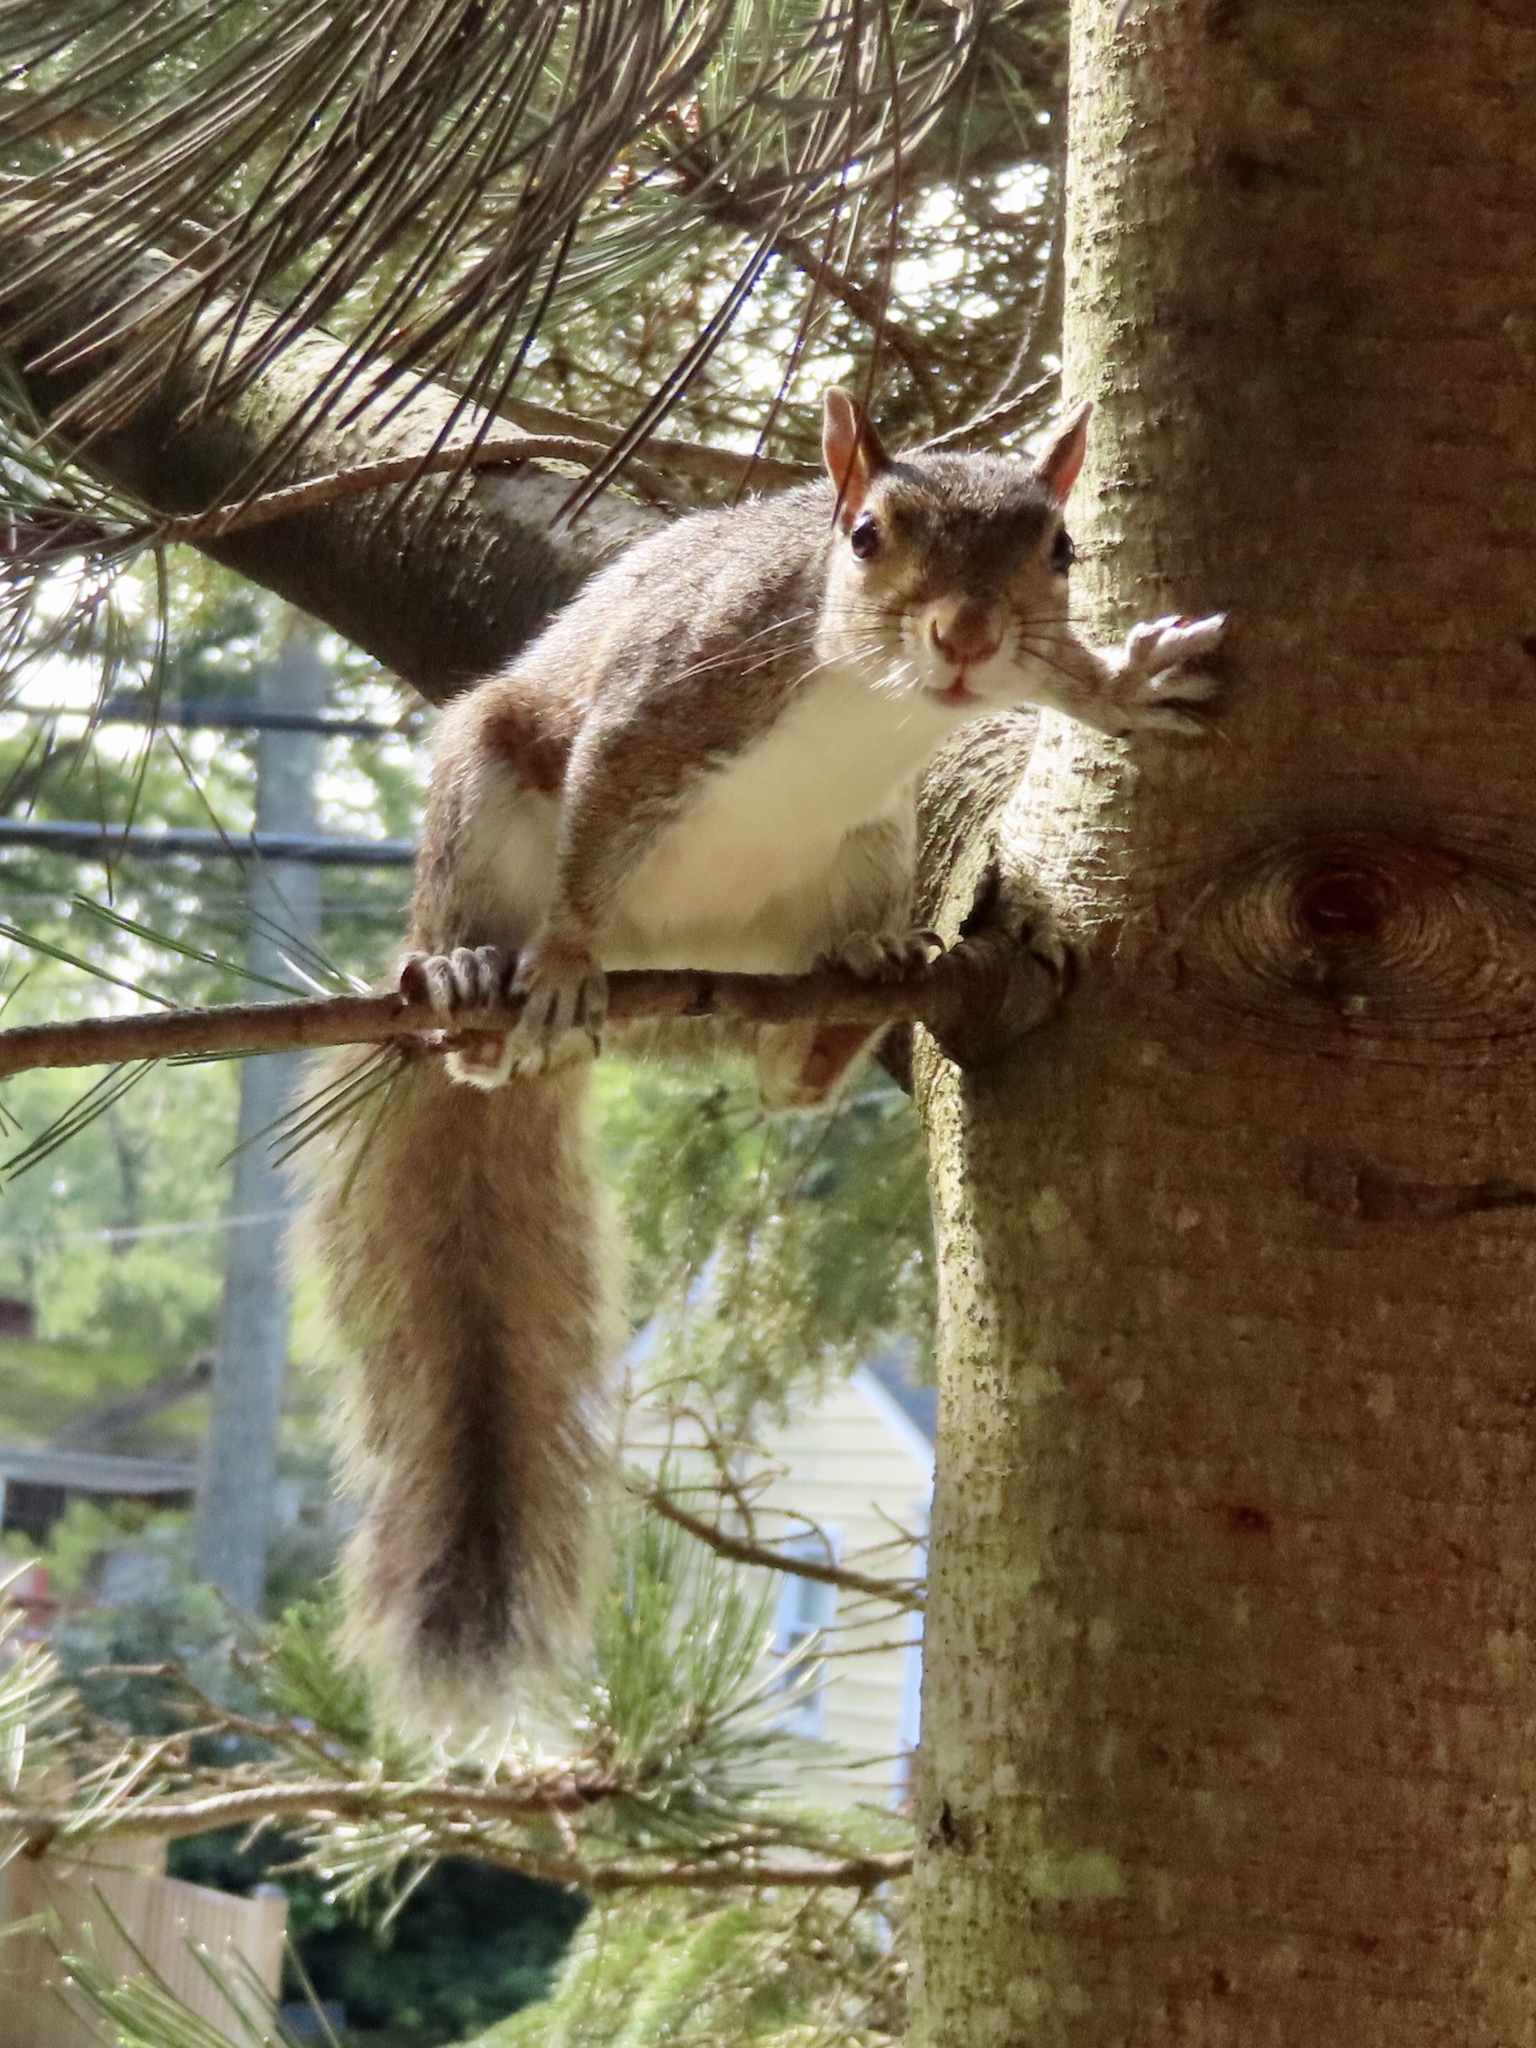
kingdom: Animalia
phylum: Chordata
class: Mammalia
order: Rodentia
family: Sciuridae
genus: Sciurus
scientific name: Sciurus carolinensis
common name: Eastern gray squirrel
